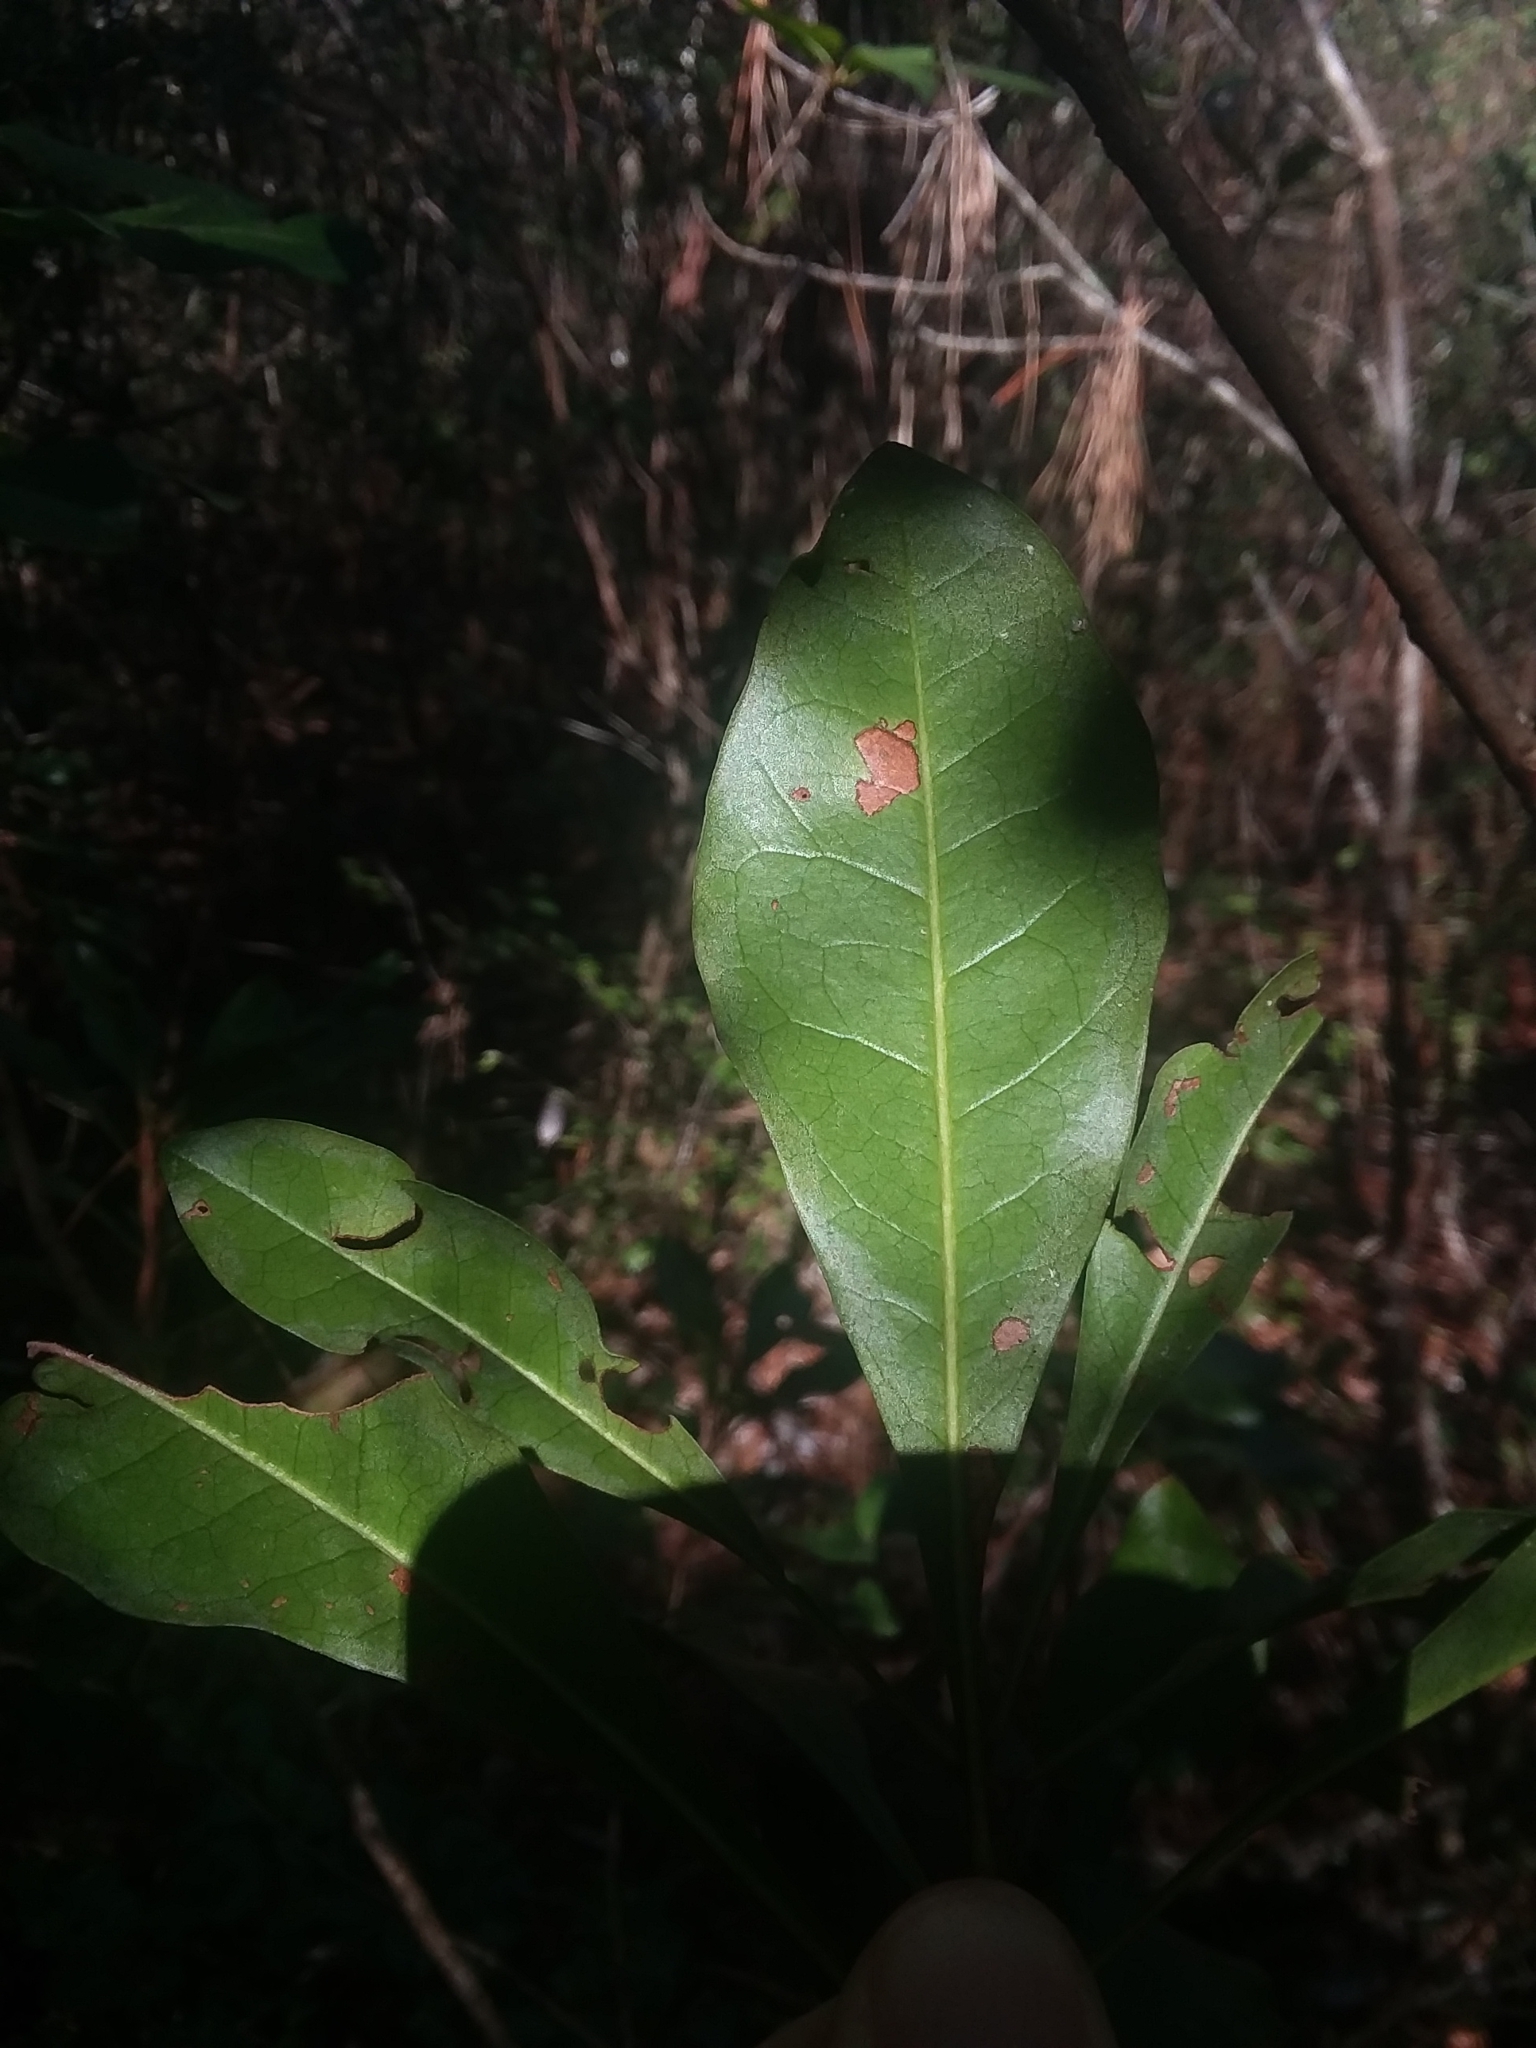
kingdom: Plantae
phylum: Tracheophyta
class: Magnoliopsida
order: Fagales
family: Myricaceae
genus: Morella
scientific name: Morella inodora
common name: Candle-berry
